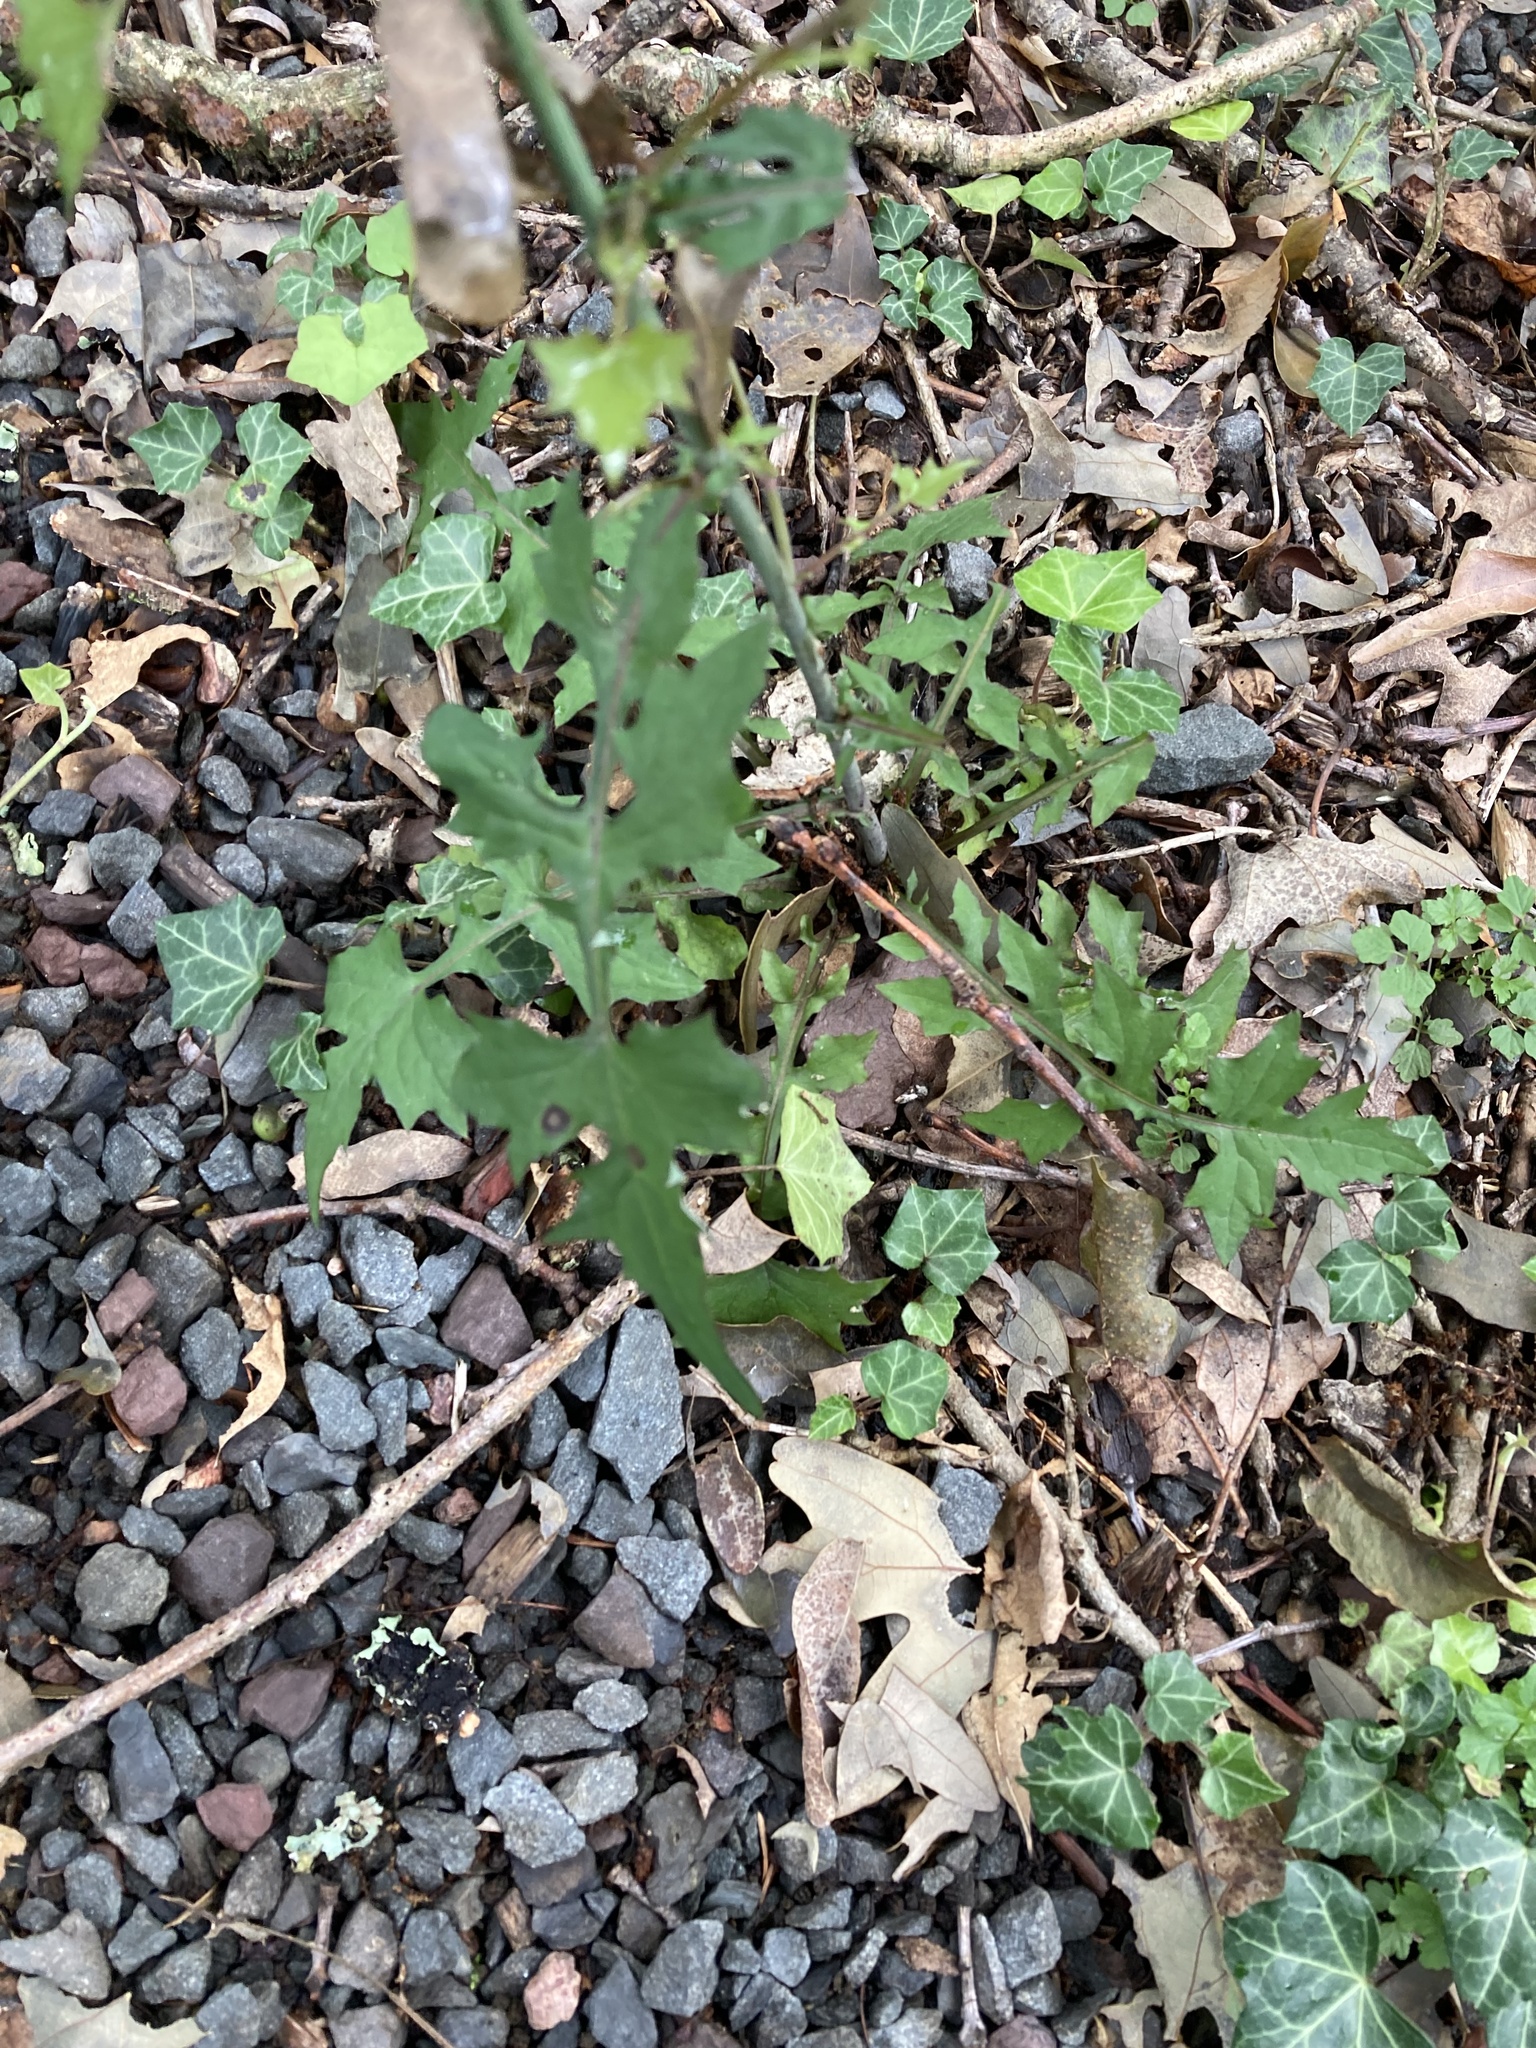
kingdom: Plantae
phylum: Tracheophyta
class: Magnoliopsida
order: Asterales
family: Asteraceae
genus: Mycelis
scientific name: Mycelis muralis
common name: Wall lettuce
